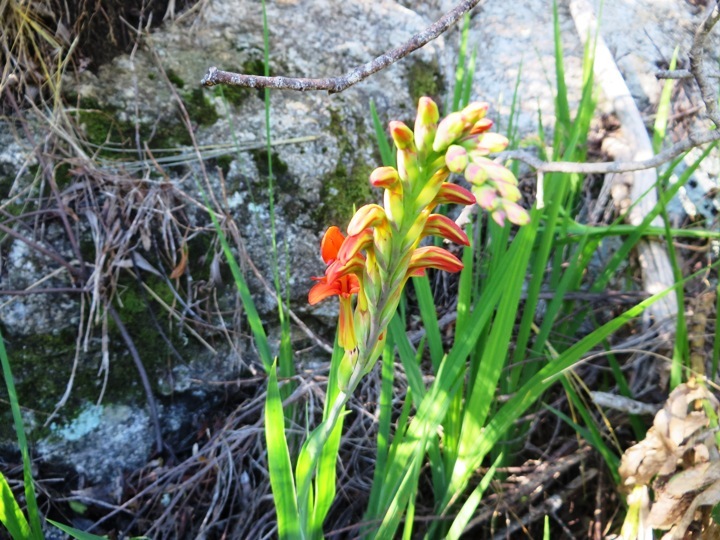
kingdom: Plantae
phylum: Tracheophyta
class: Liliopsida
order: Asparagales
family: Iridaceae
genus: Chasmanthe
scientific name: Chasmanthe floribunda
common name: African cornflag
